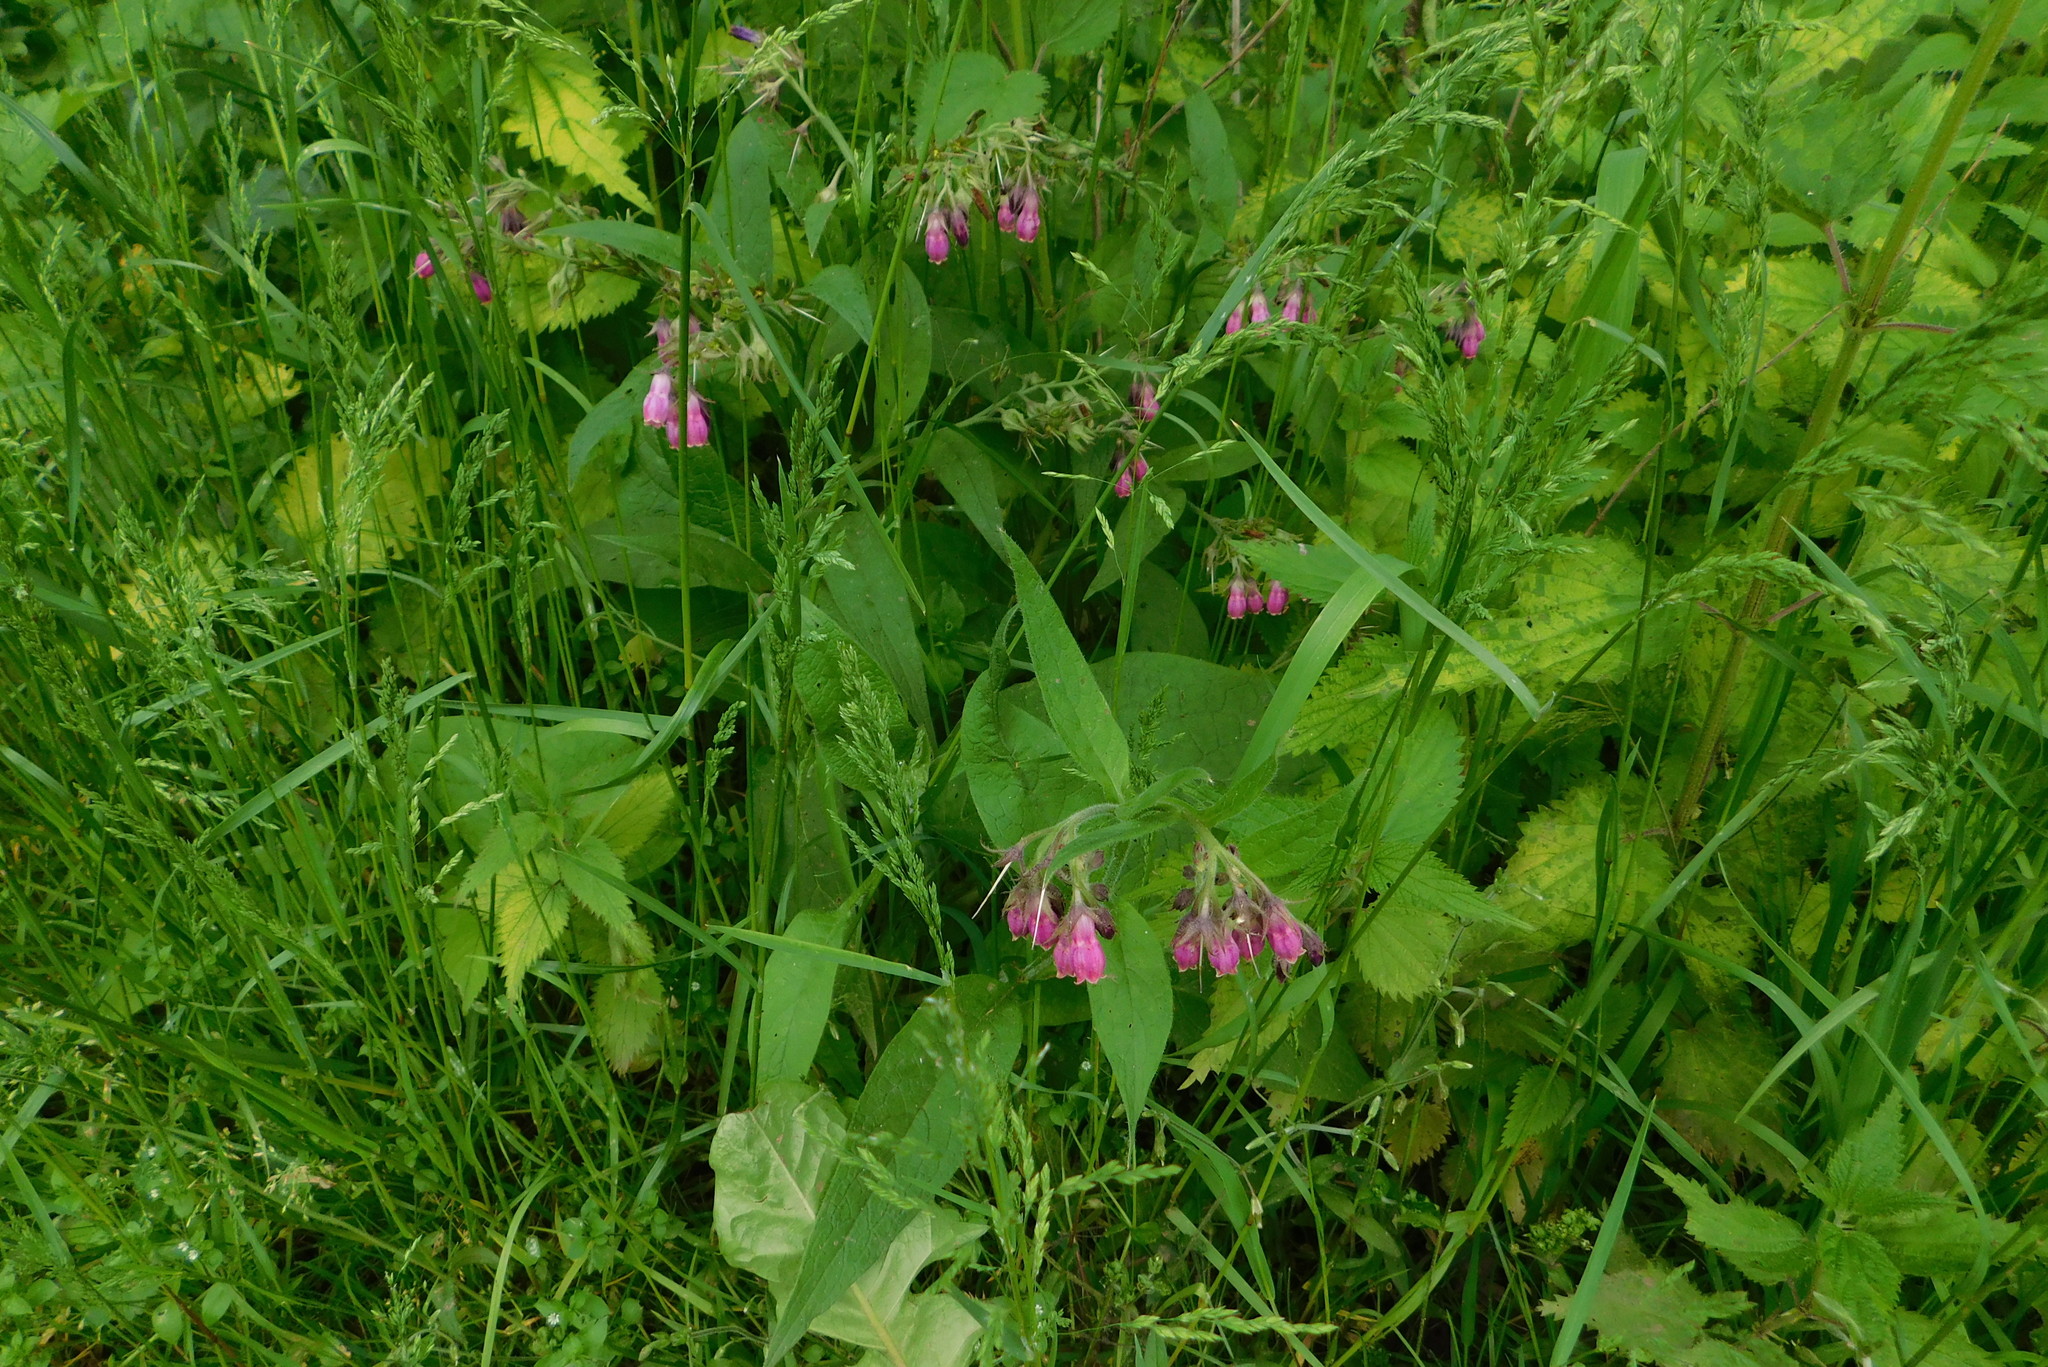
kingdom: Plantae
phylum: Tracheophyta
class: Magnoliopsida
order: Boraginales
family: Boraginaceae
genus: Symphytum
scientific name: Symphytum officinale
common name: Common comfrey
